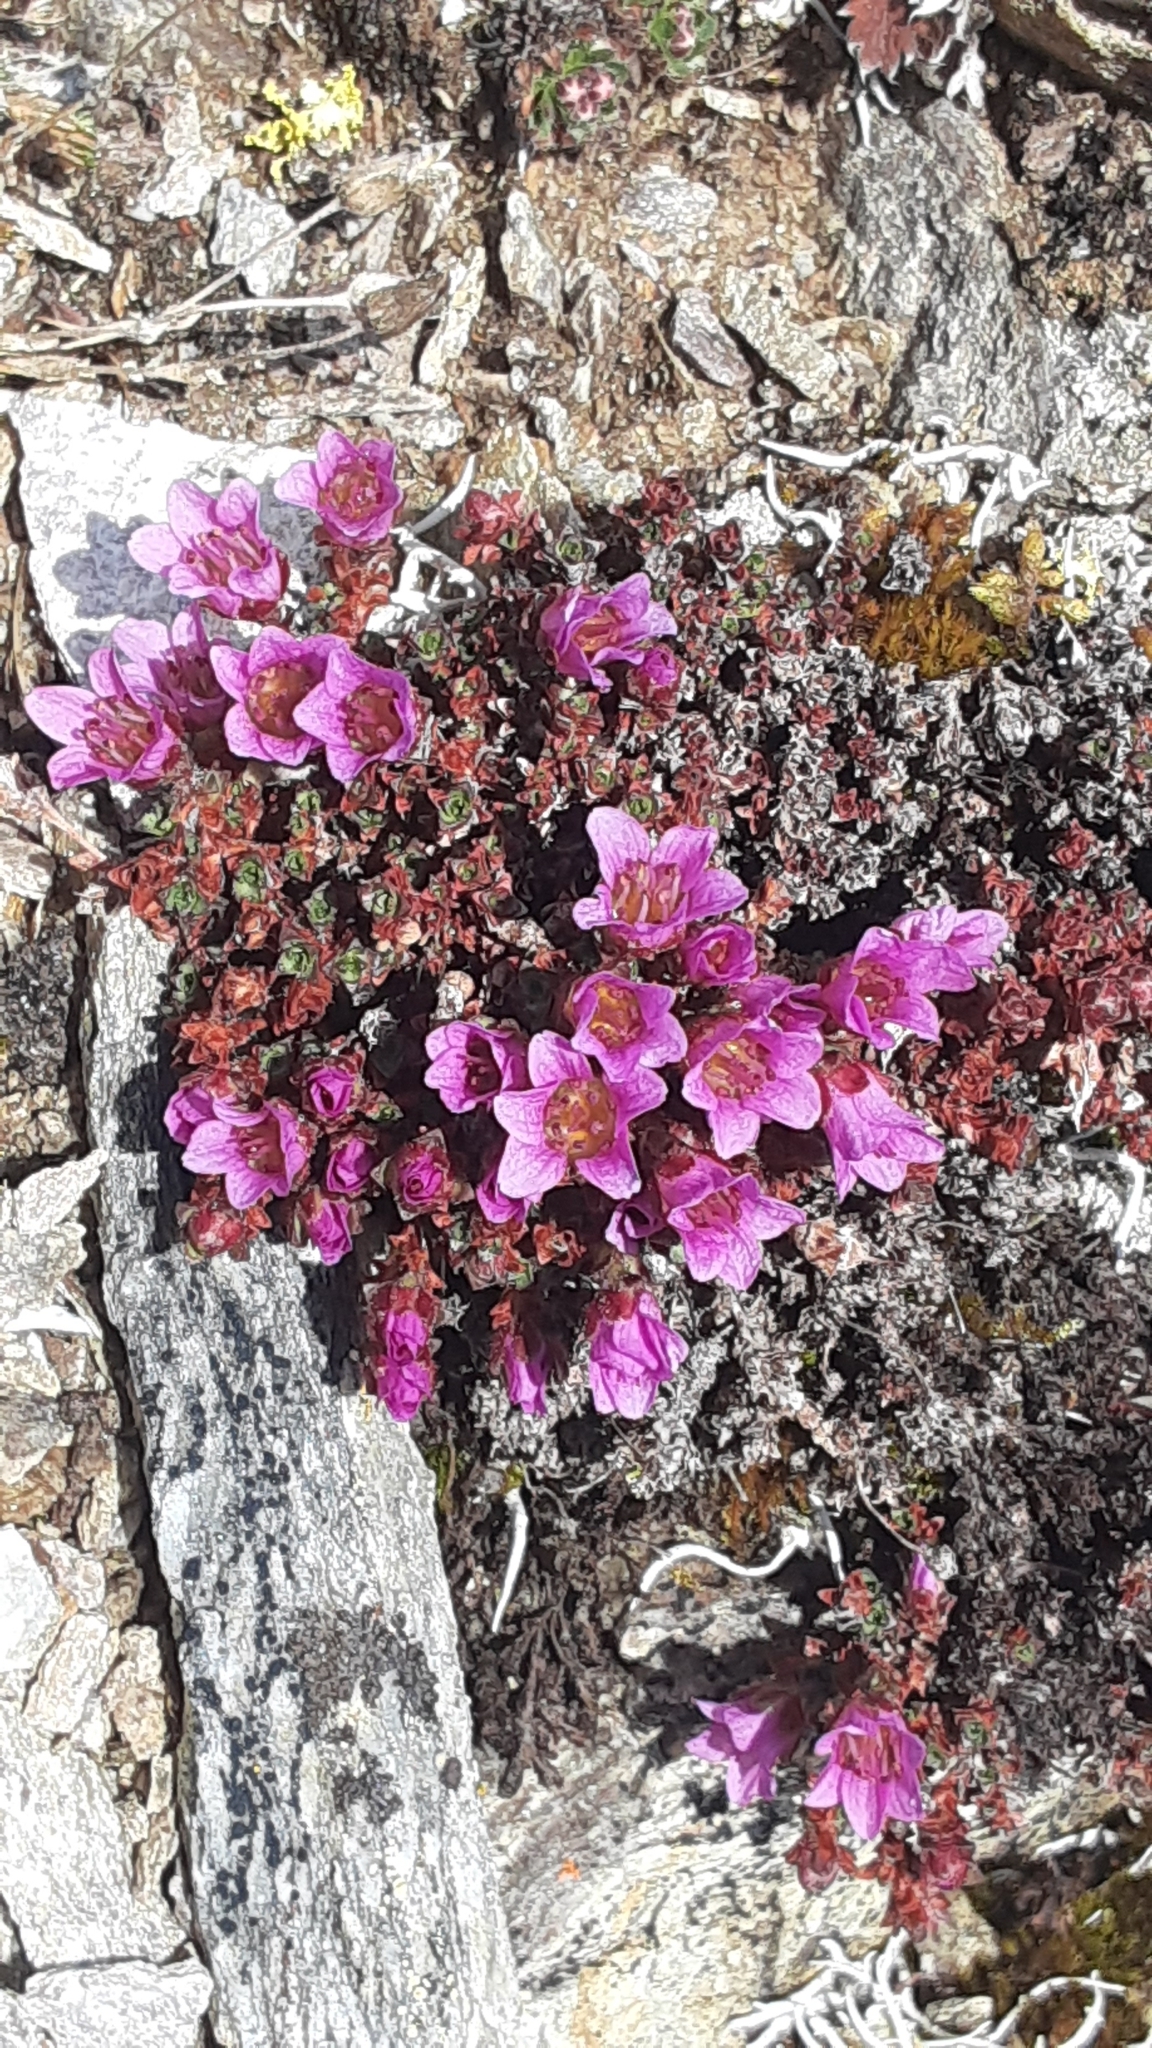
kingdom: Plantae
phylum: Tracheophyta
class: Magnoliopsida
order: Saxifragales
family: Saxifragaceae
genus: Saxifraga
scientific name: Saxifraga oppositifolia
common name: Purple saxifrage
